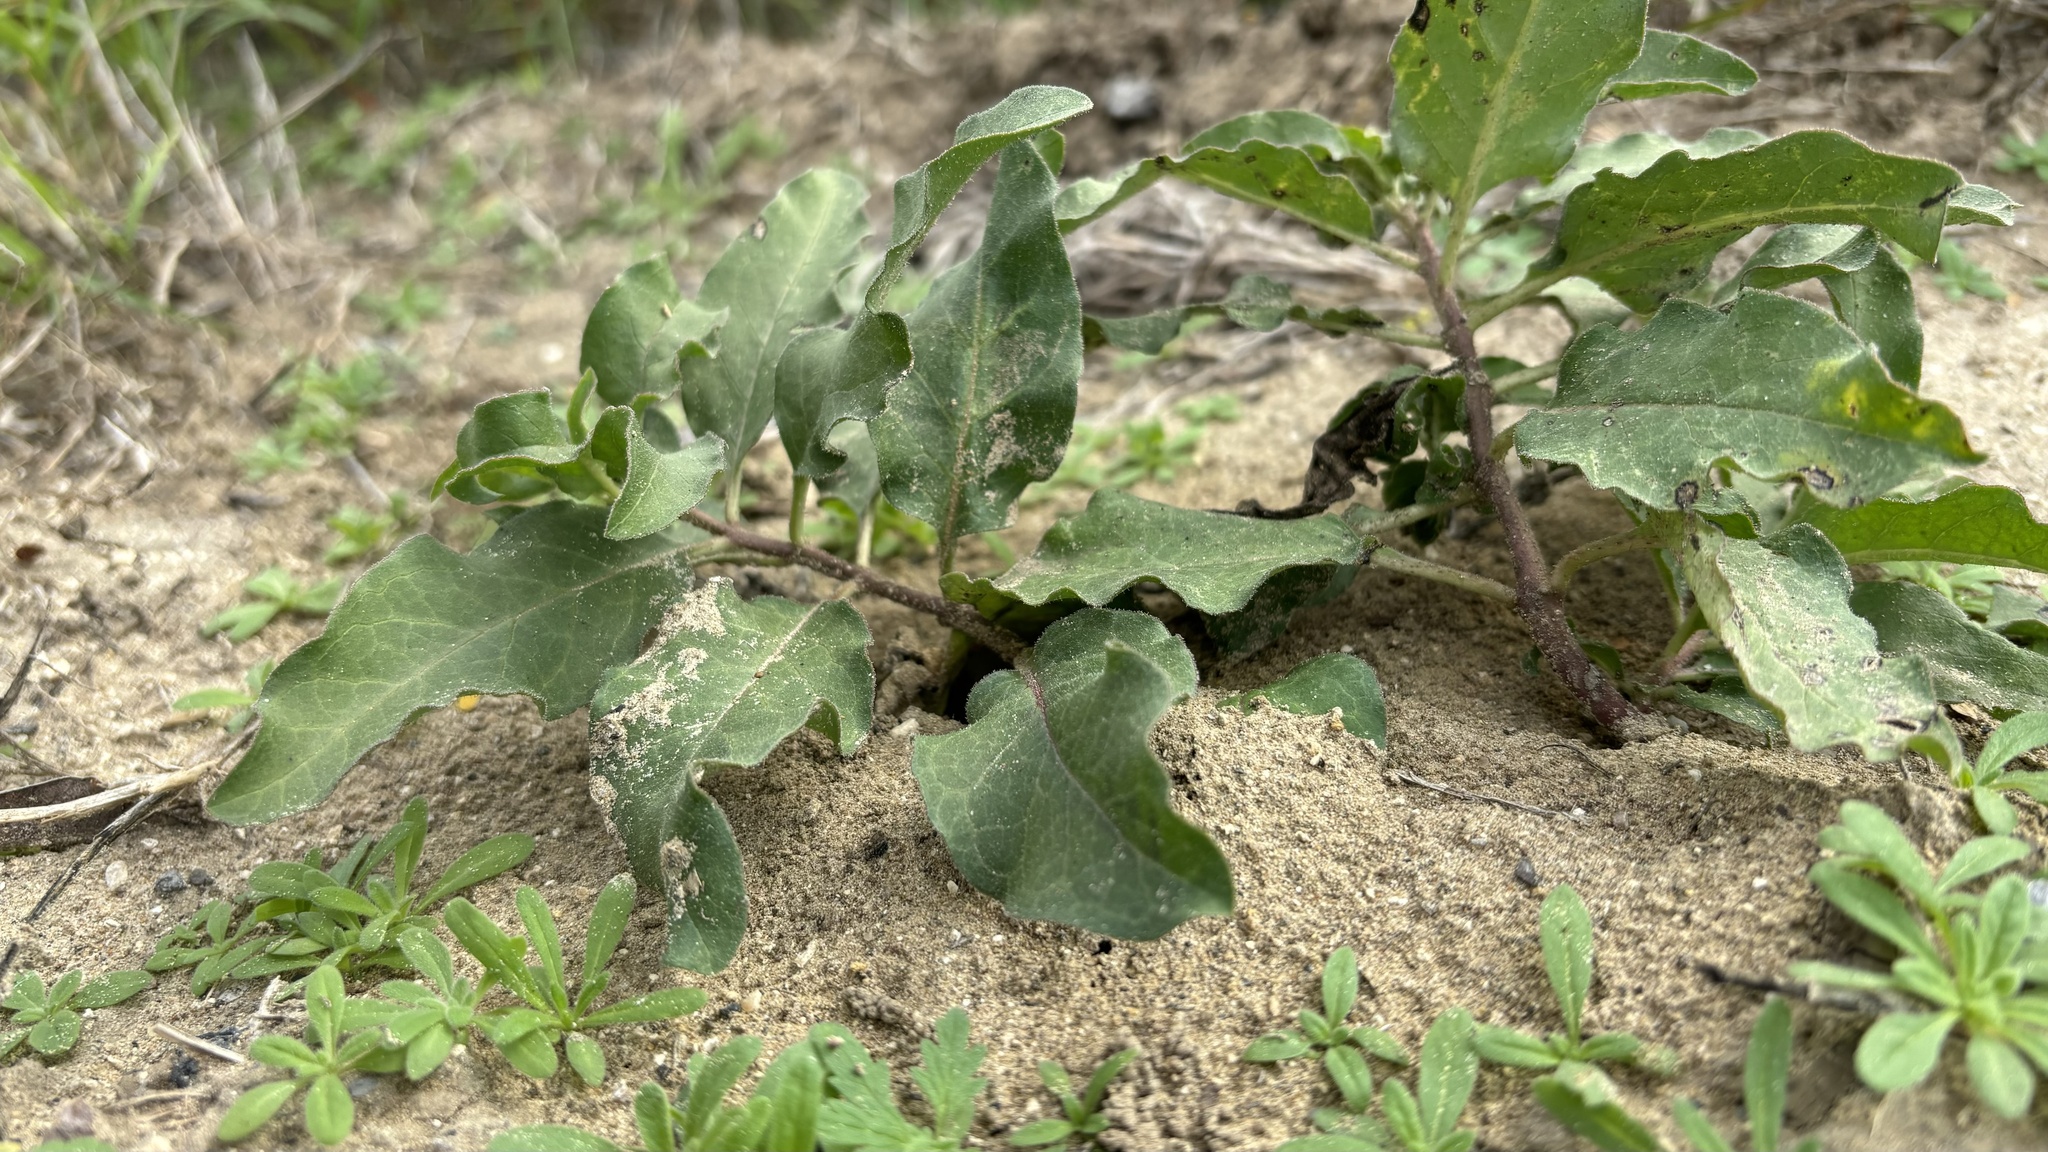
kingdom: Plantae
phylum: Tracheophyta
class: Magnoliopsida
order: Gentianales
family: Apocynaceae
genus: Asclepias
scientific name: Asclepias oenotheroides
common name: Zizotes milkweed
